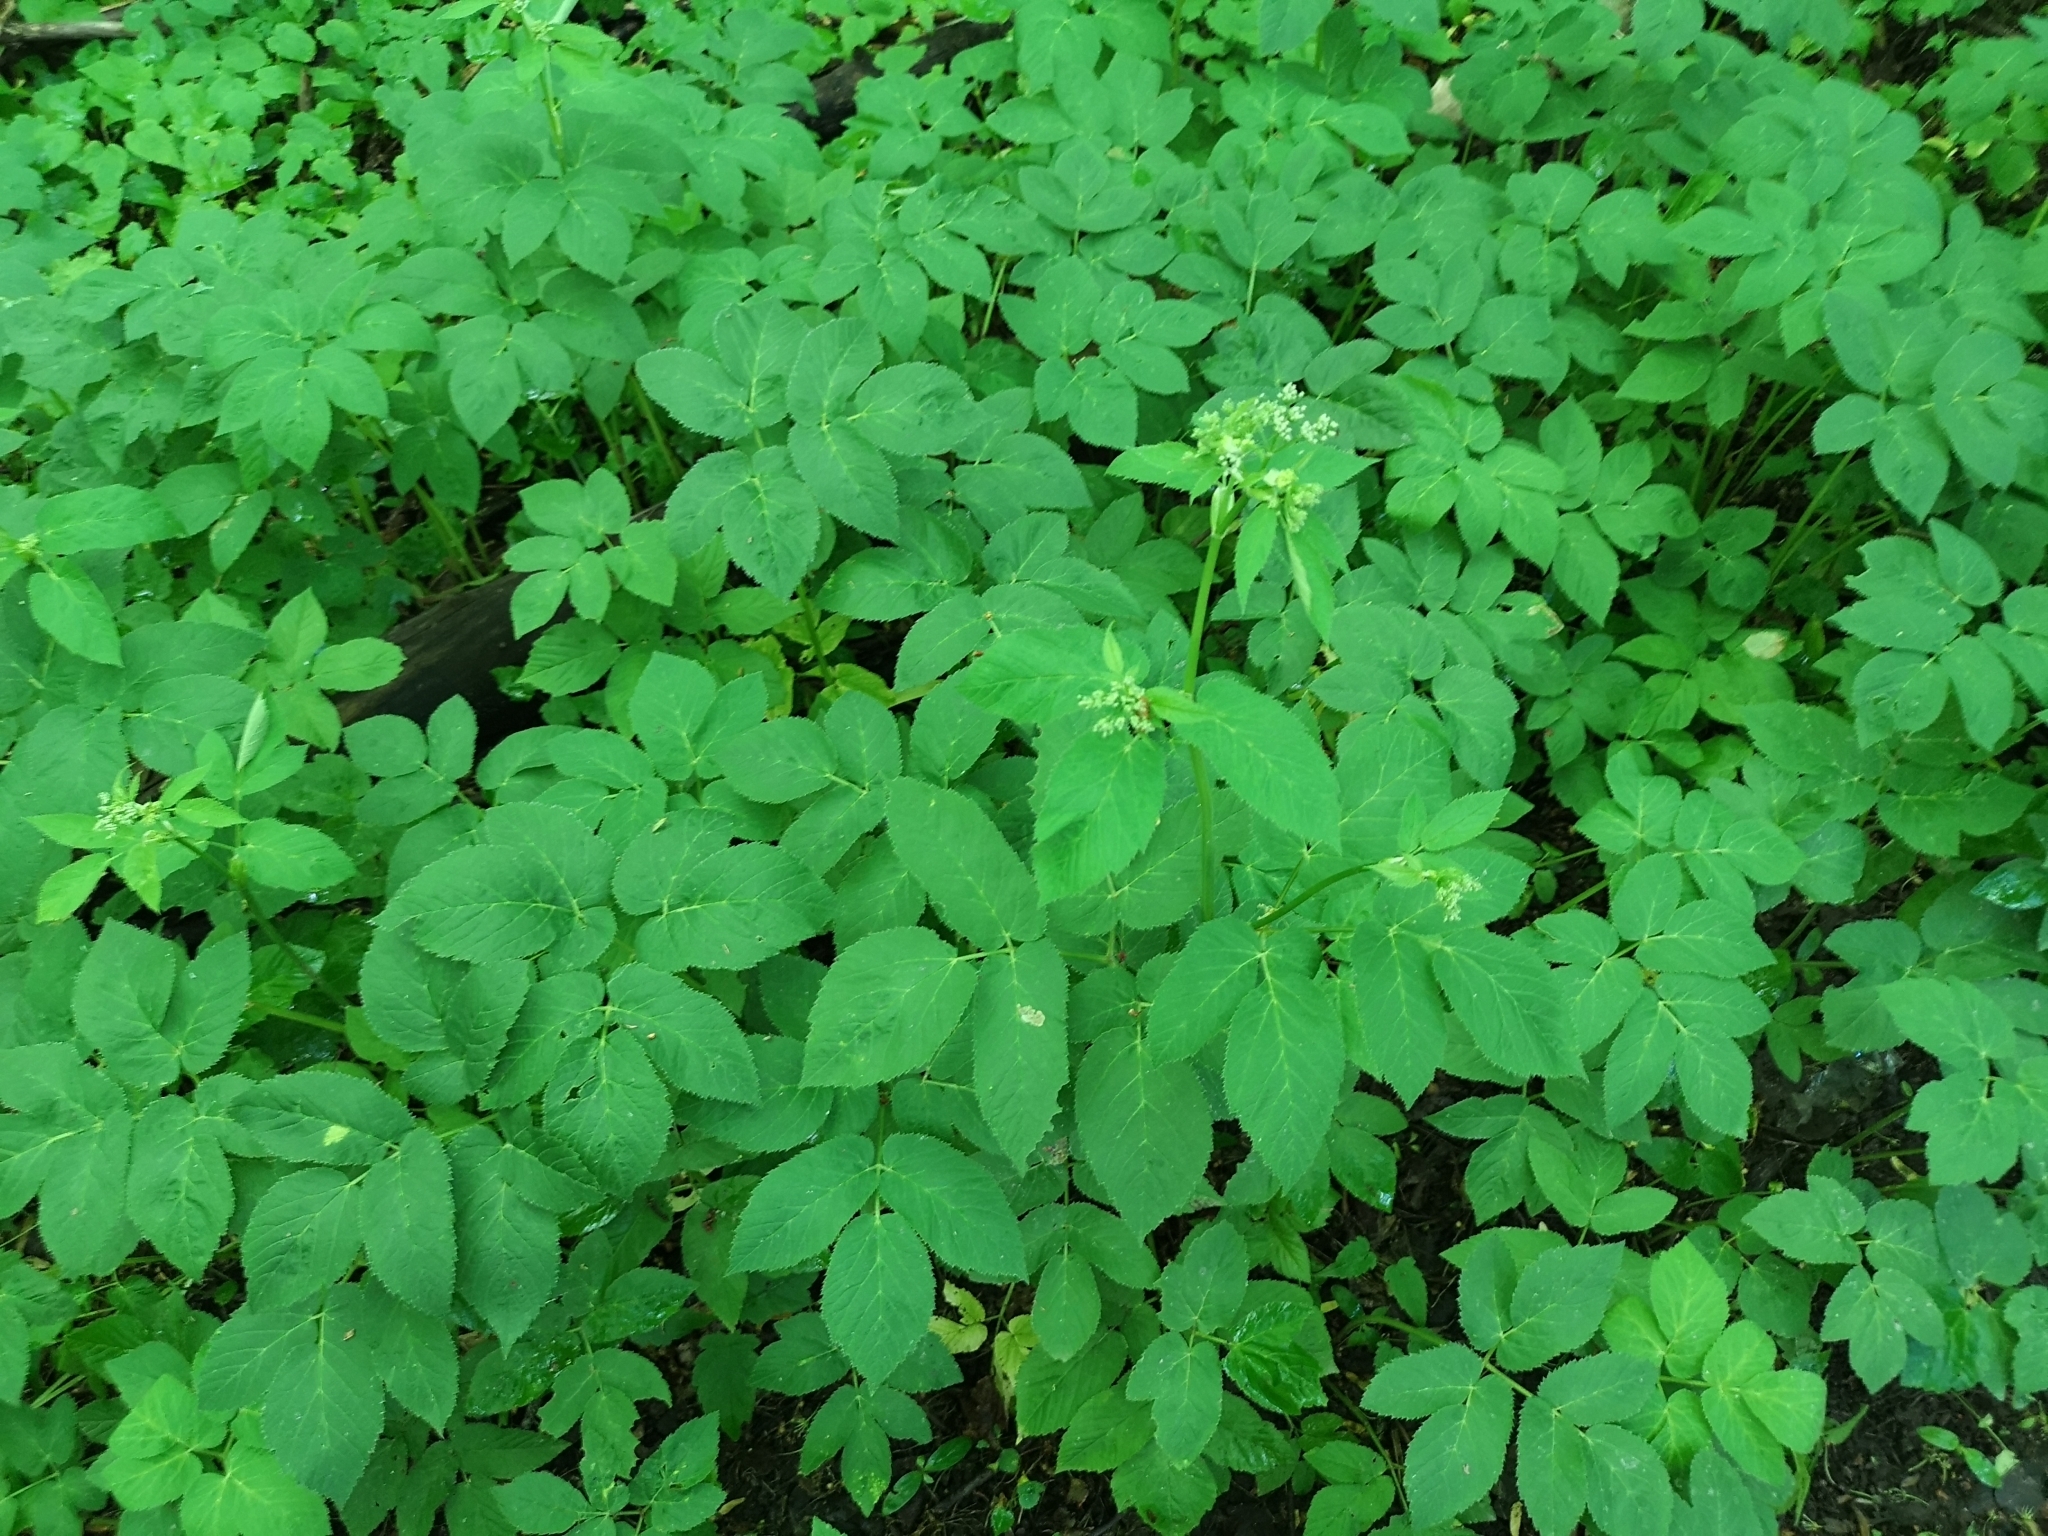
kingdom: Plantae
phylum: Tracheophyta
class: Magnoliopsida
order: Apiales
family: Apiaceae
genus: Aegopodium
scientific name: Aegopodium podagraria
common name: Ground-elder
